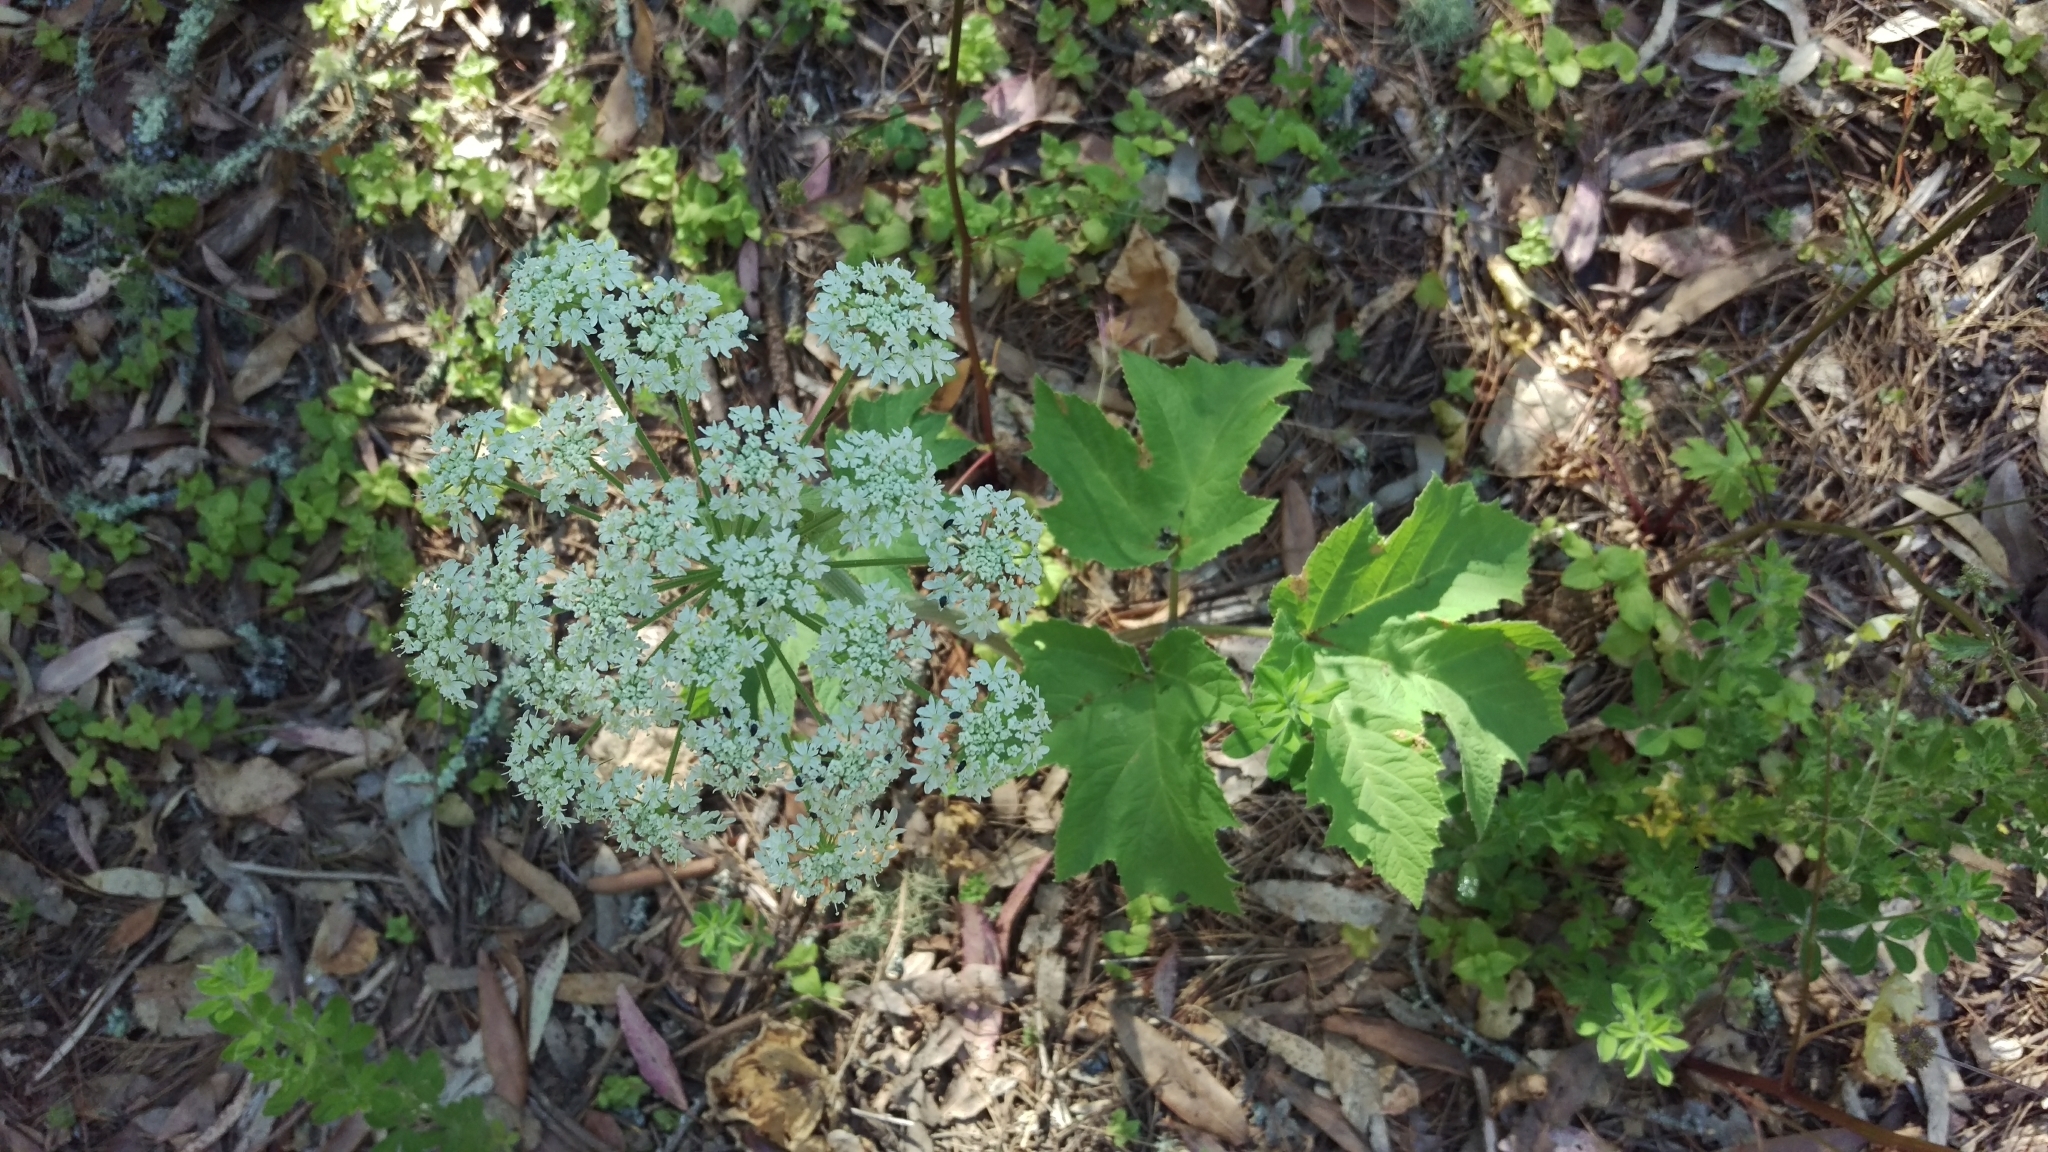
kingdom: Plantae
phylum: Tracheophyta
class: Magnoliopsida
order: Apiales
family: Apiaceae
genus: Heracleum
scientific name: Heracleum maximum
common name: American cow parsnip
